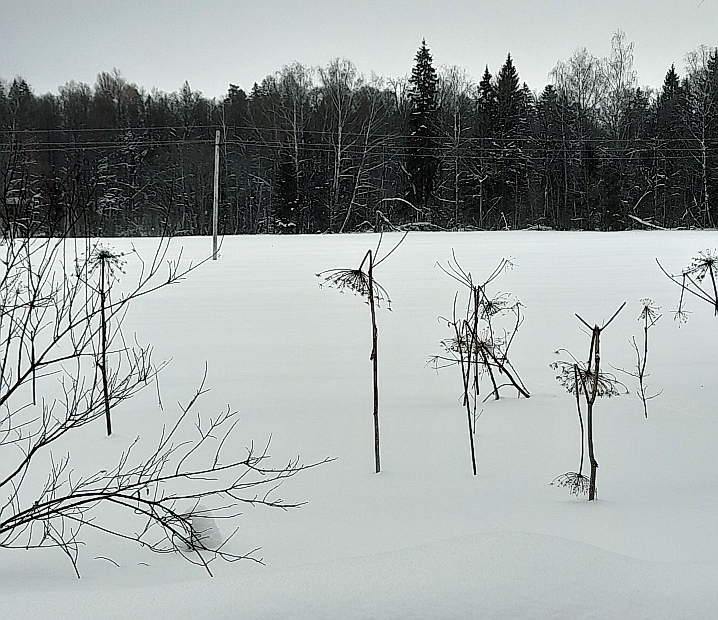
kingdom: Plantae
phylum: Tracheophyta
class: Magnoliopsida
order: Apiales
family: Apiaceae
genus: Heracleum
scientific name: Heracleum sosnowskyi
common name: Sosnowsky's hogweed
